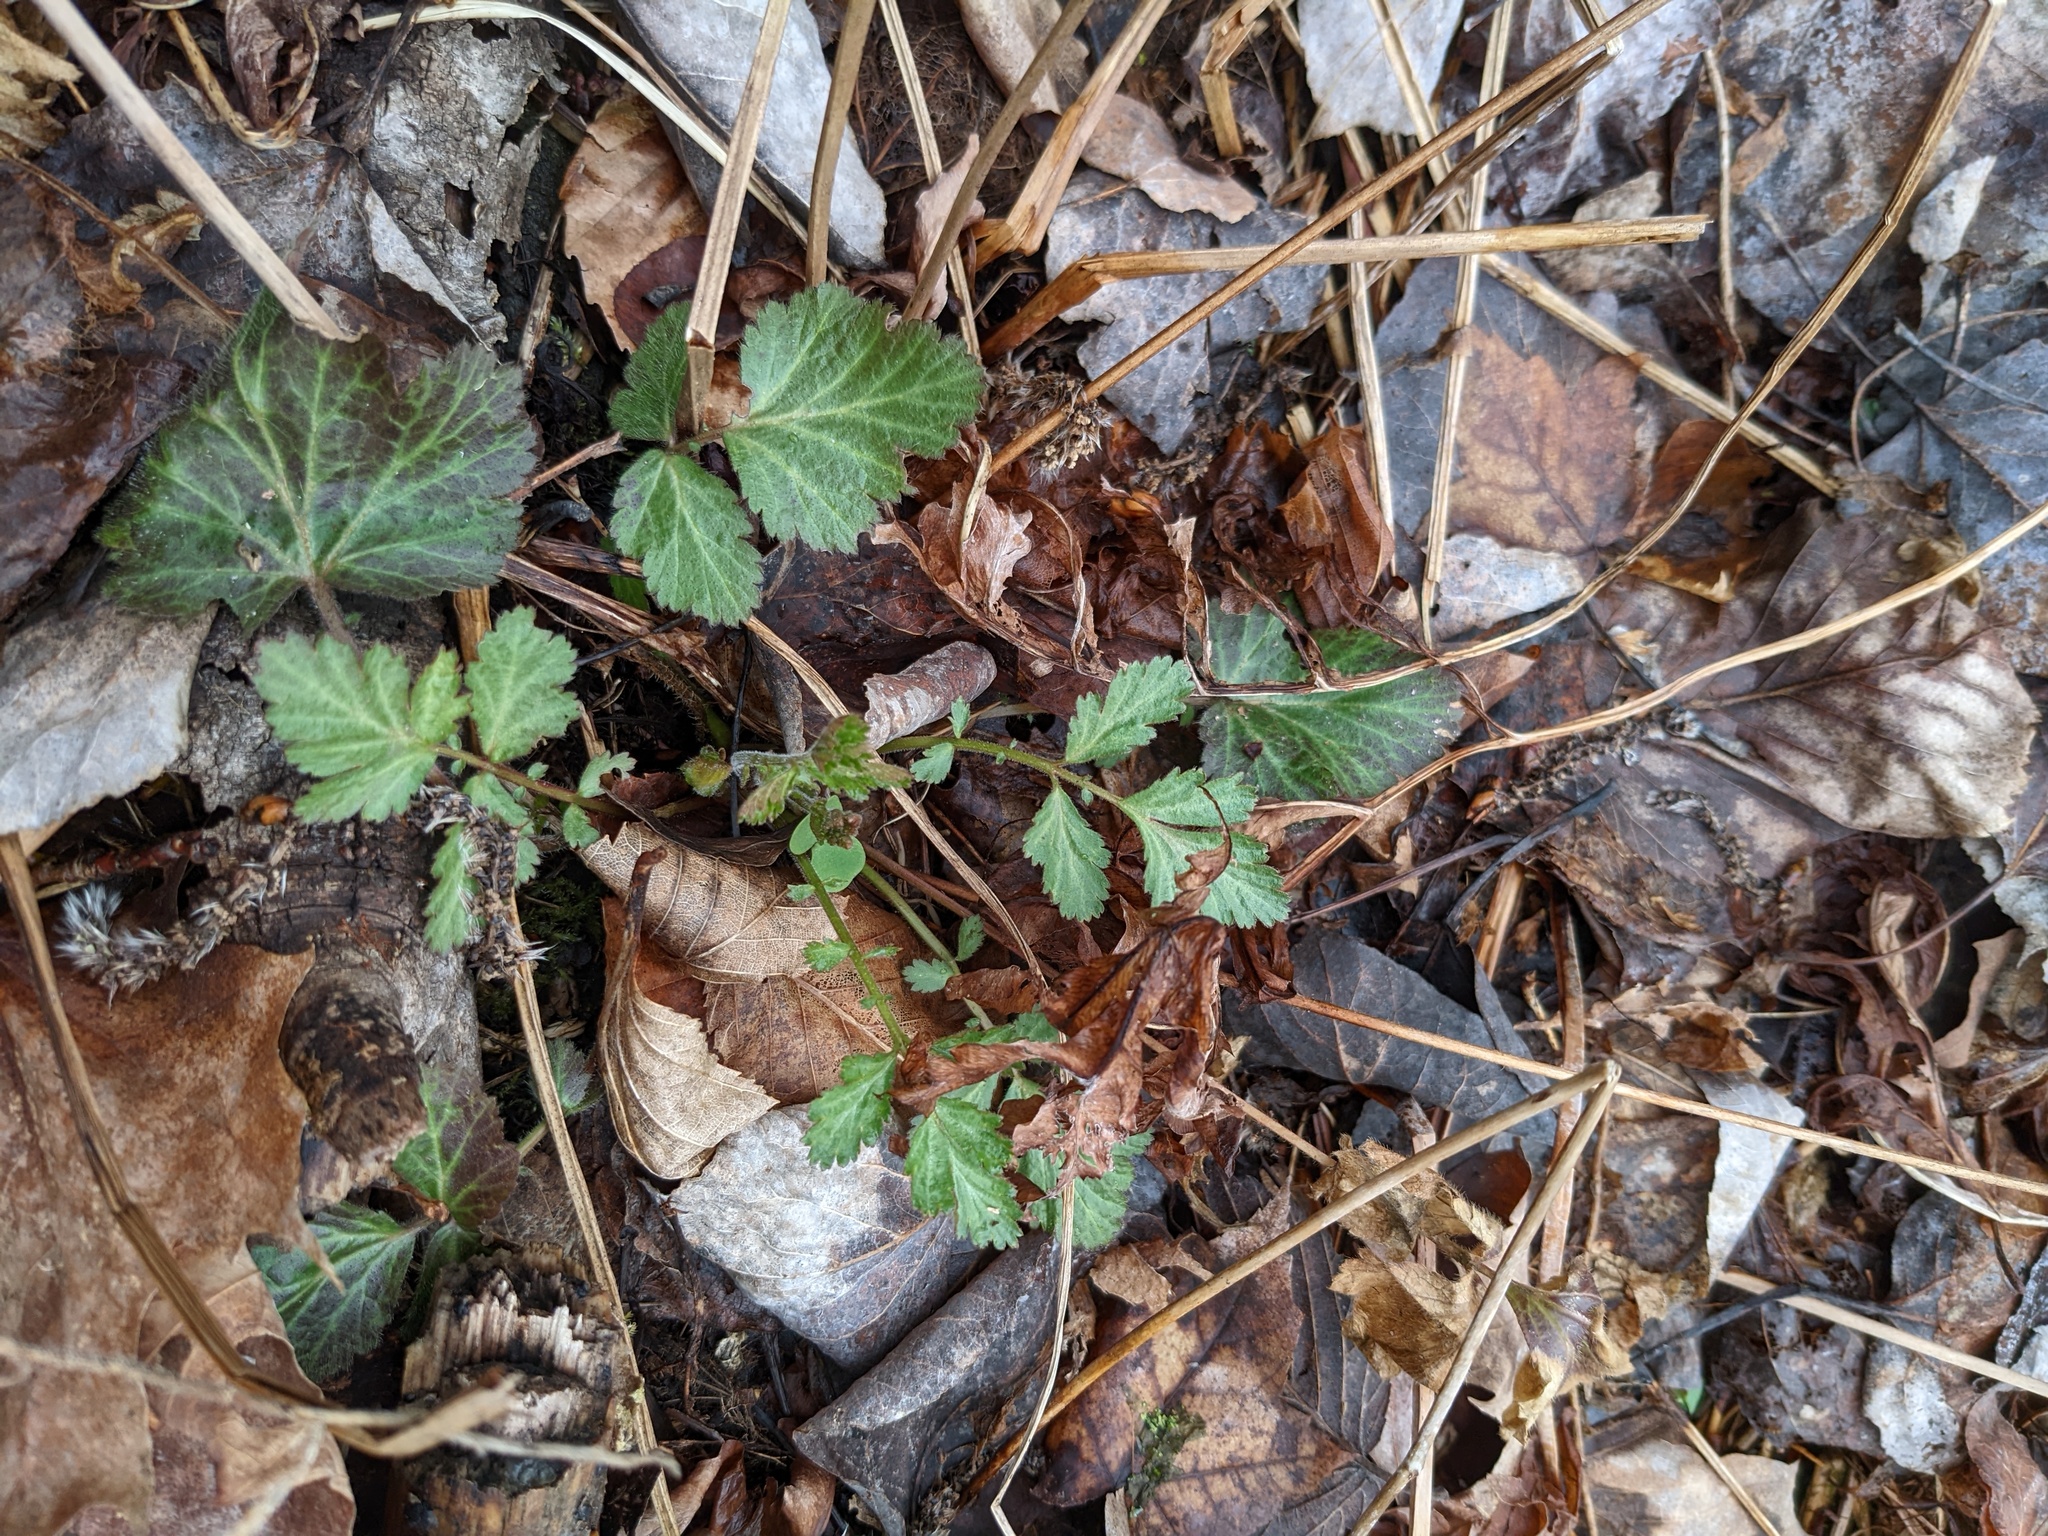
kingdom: Plantae
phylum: Tracheophyta
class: Magnoliopsida
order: Rosales
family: Rosaceae
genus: Geum
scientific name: Geum canadense
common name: White avens
